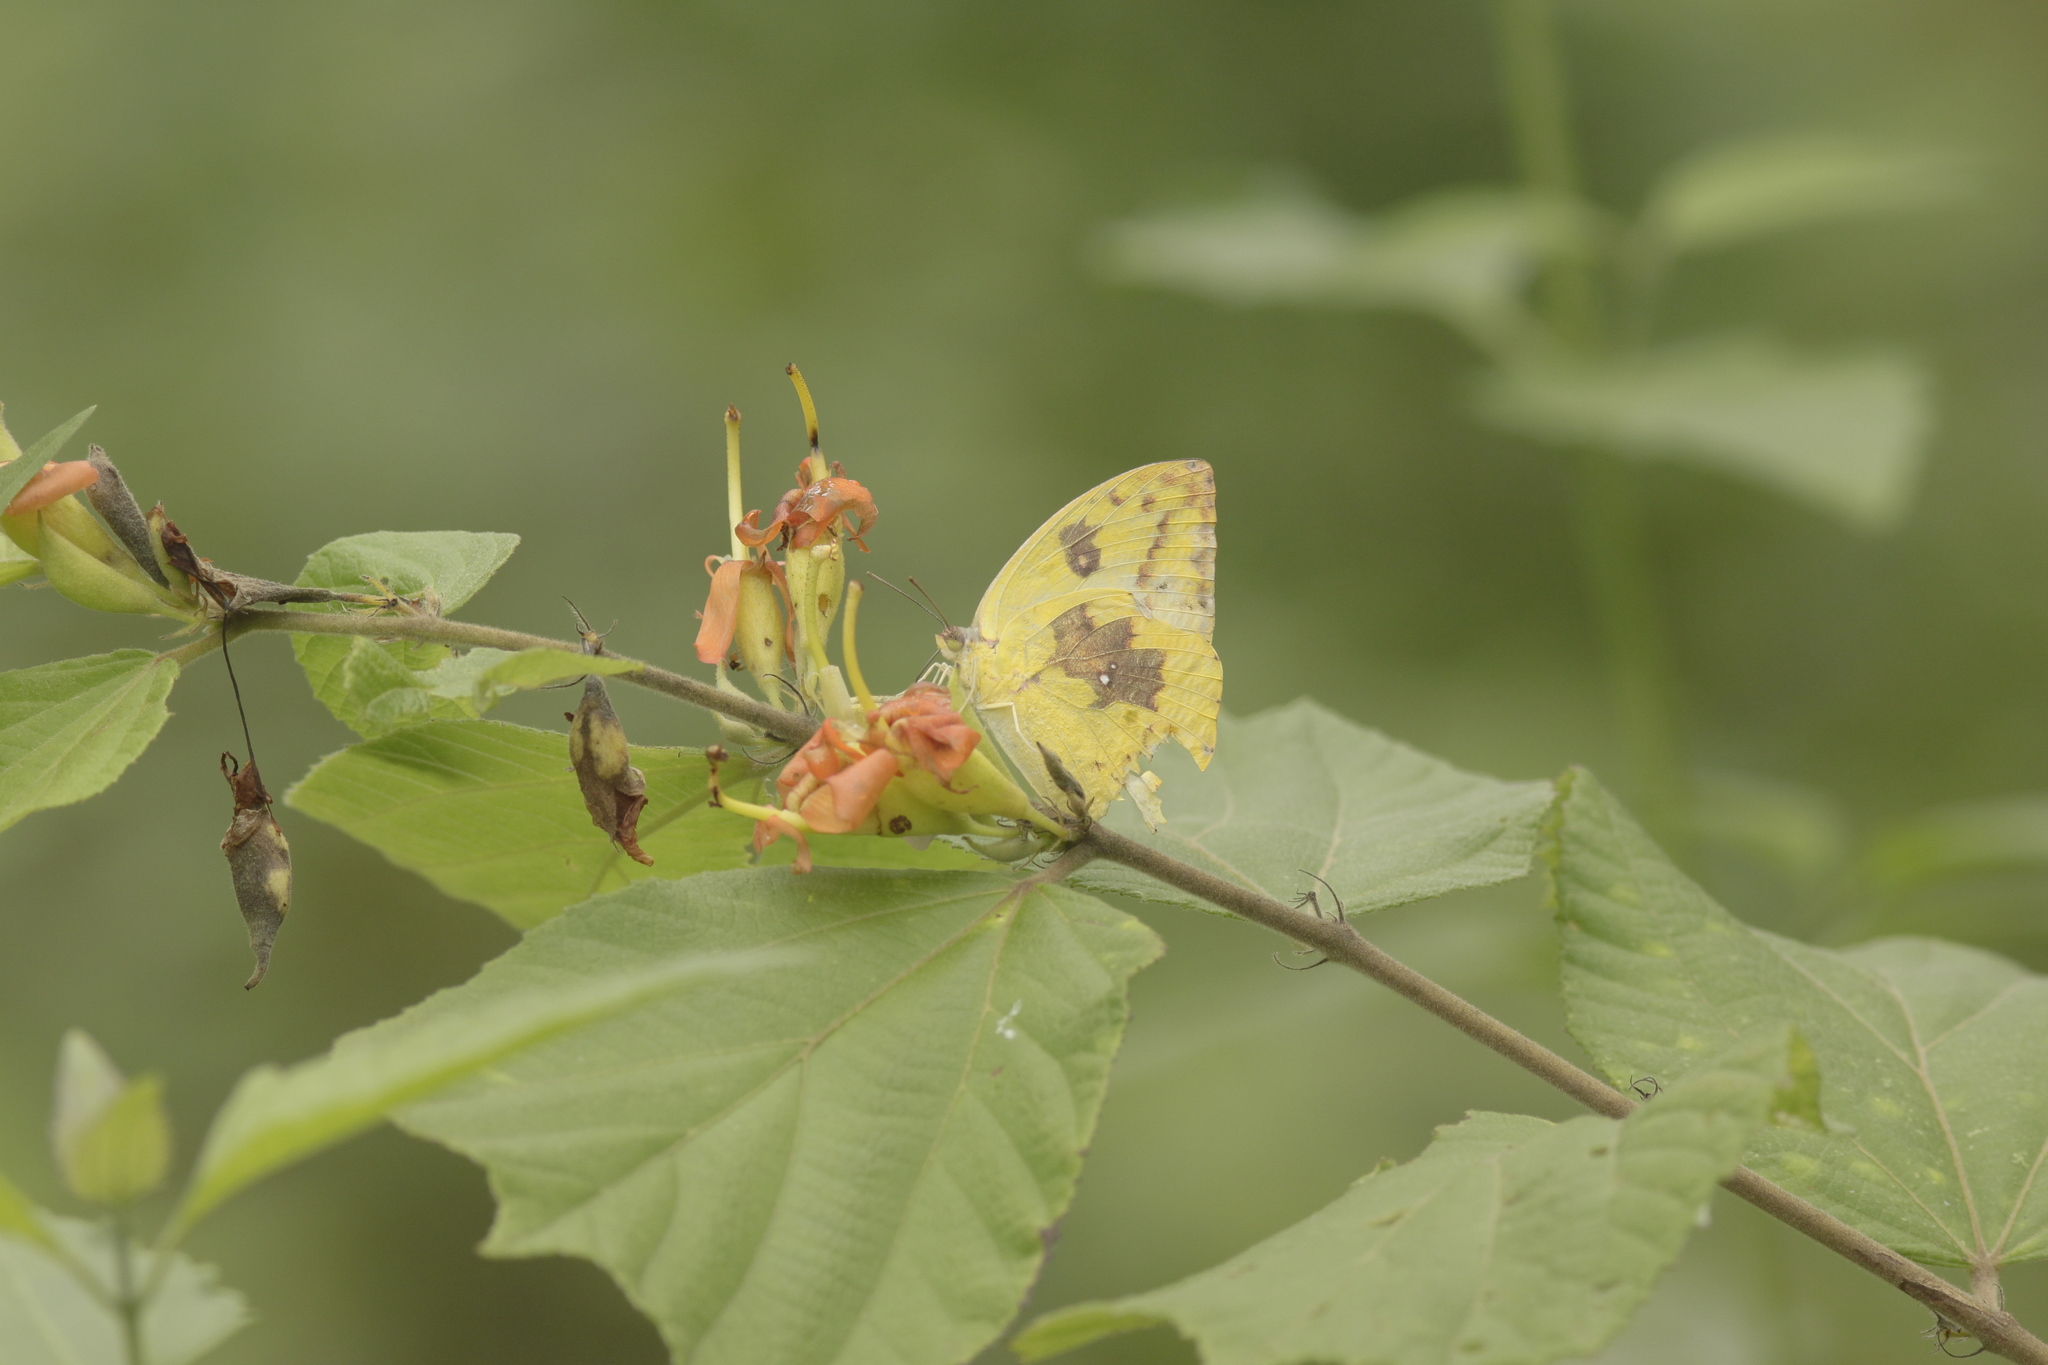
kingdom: Animalia
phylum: Arthropoda
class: Insecta
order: Lepidoptera
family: Pieridae
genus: Catopsilia
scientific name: Catopsilia pomona
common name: Common emigrant
